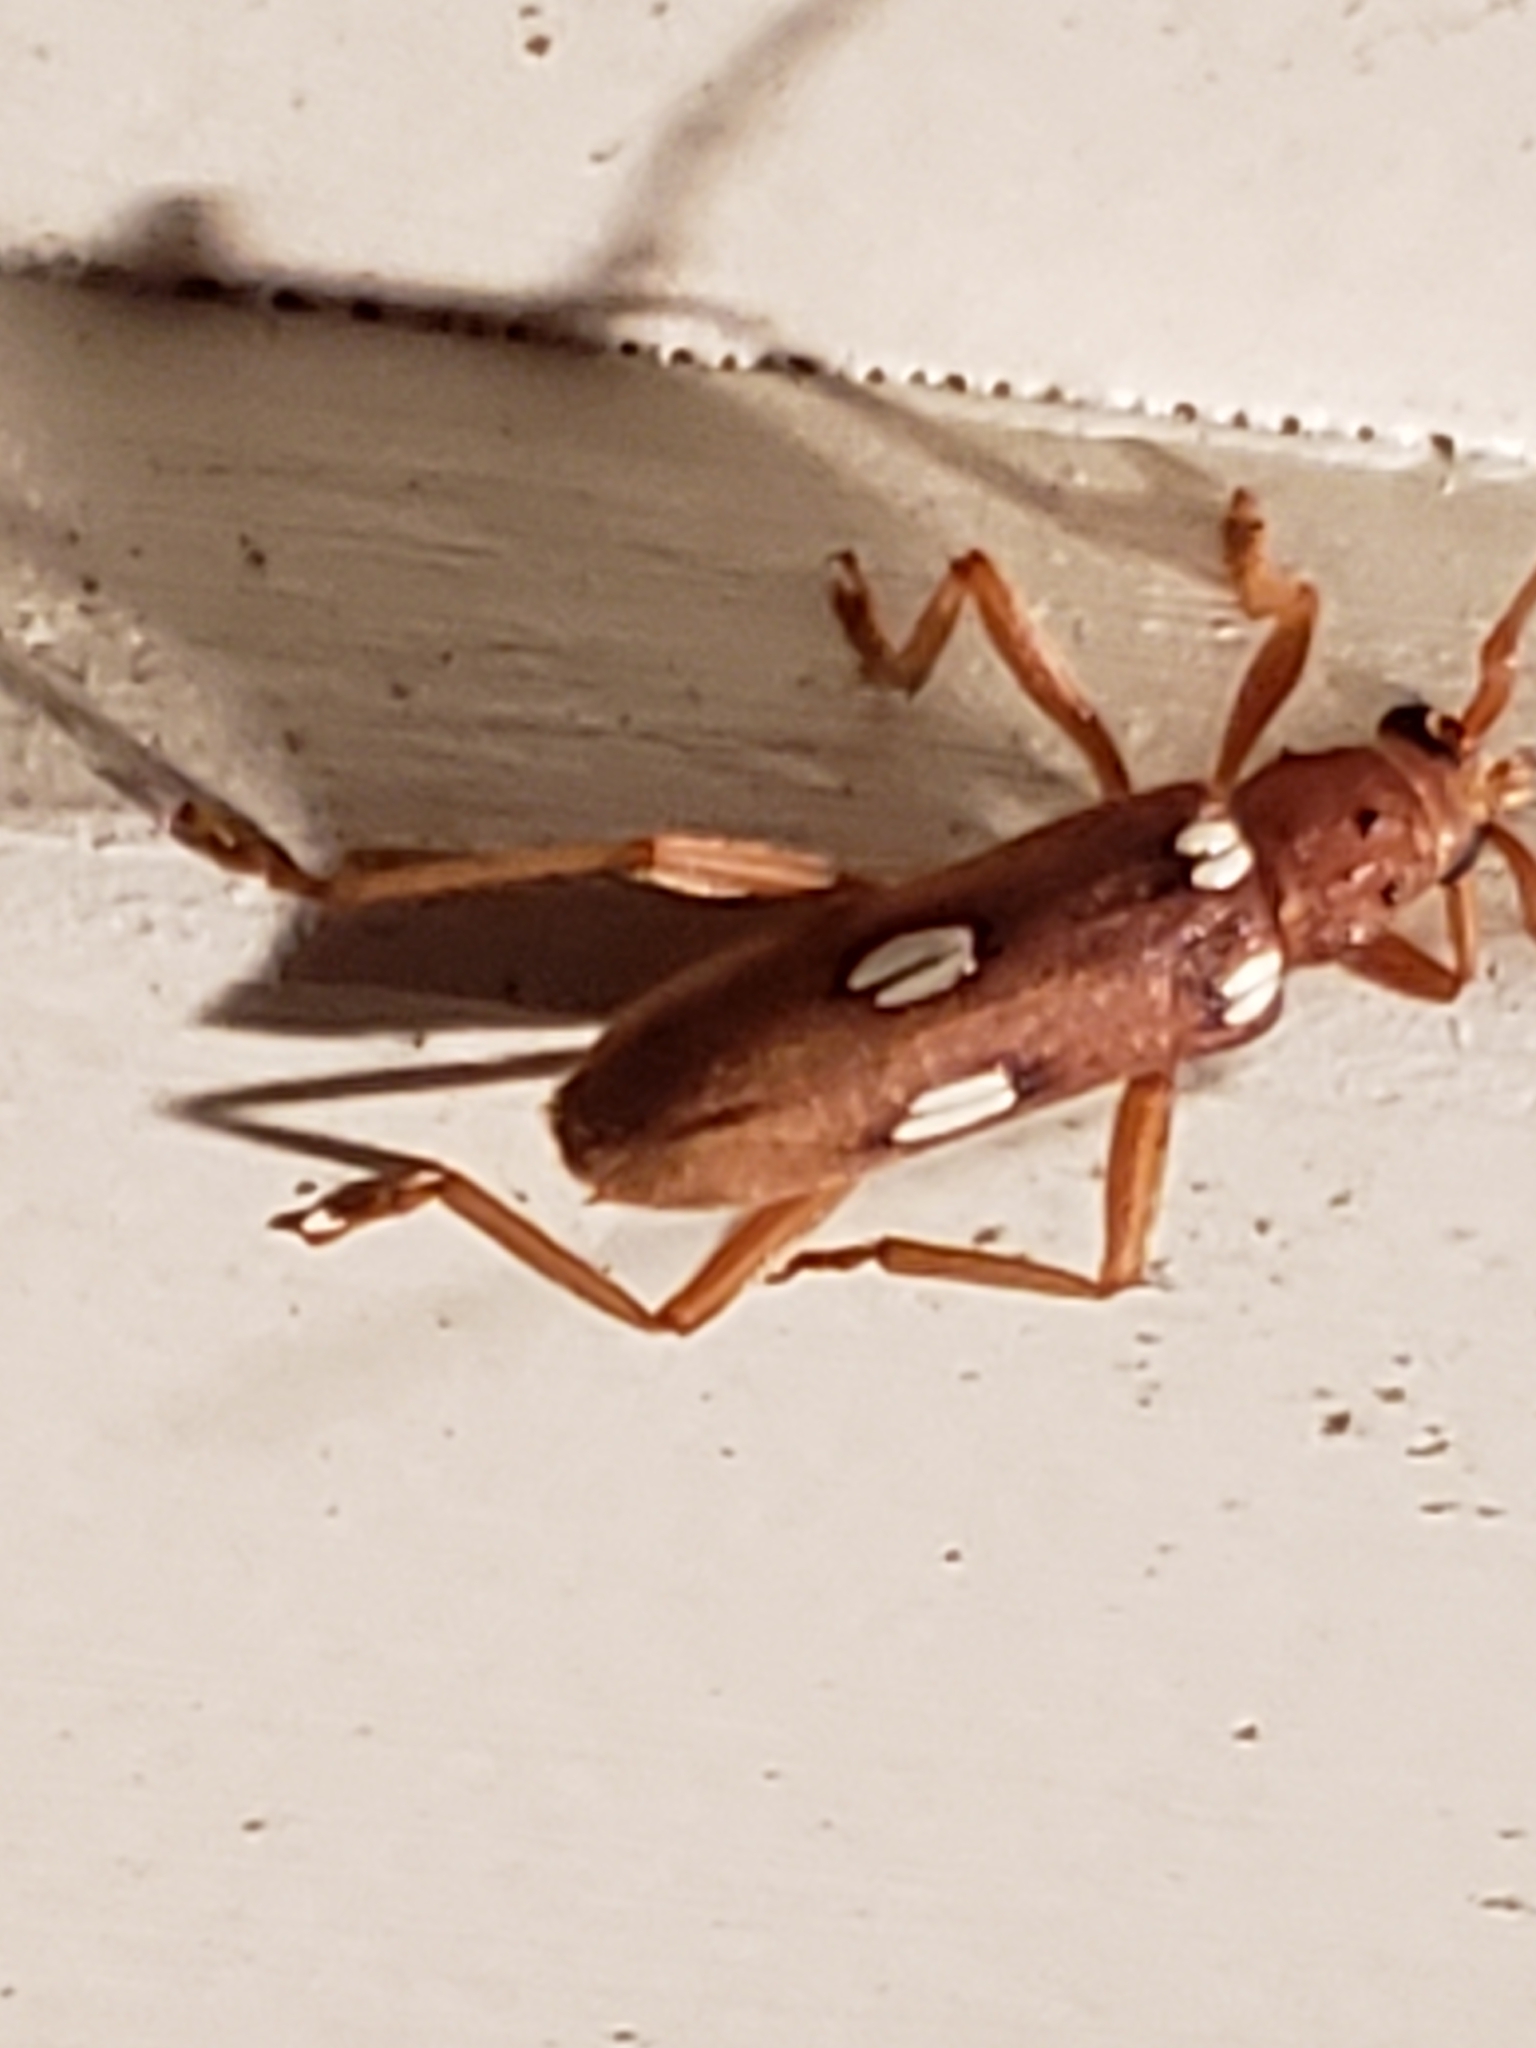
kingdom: Animalia
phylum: Arthropoda
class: Insecta
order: Coleoptera
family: Cerambycidae
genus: Eburia
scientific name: Eburia quadrigeminata
